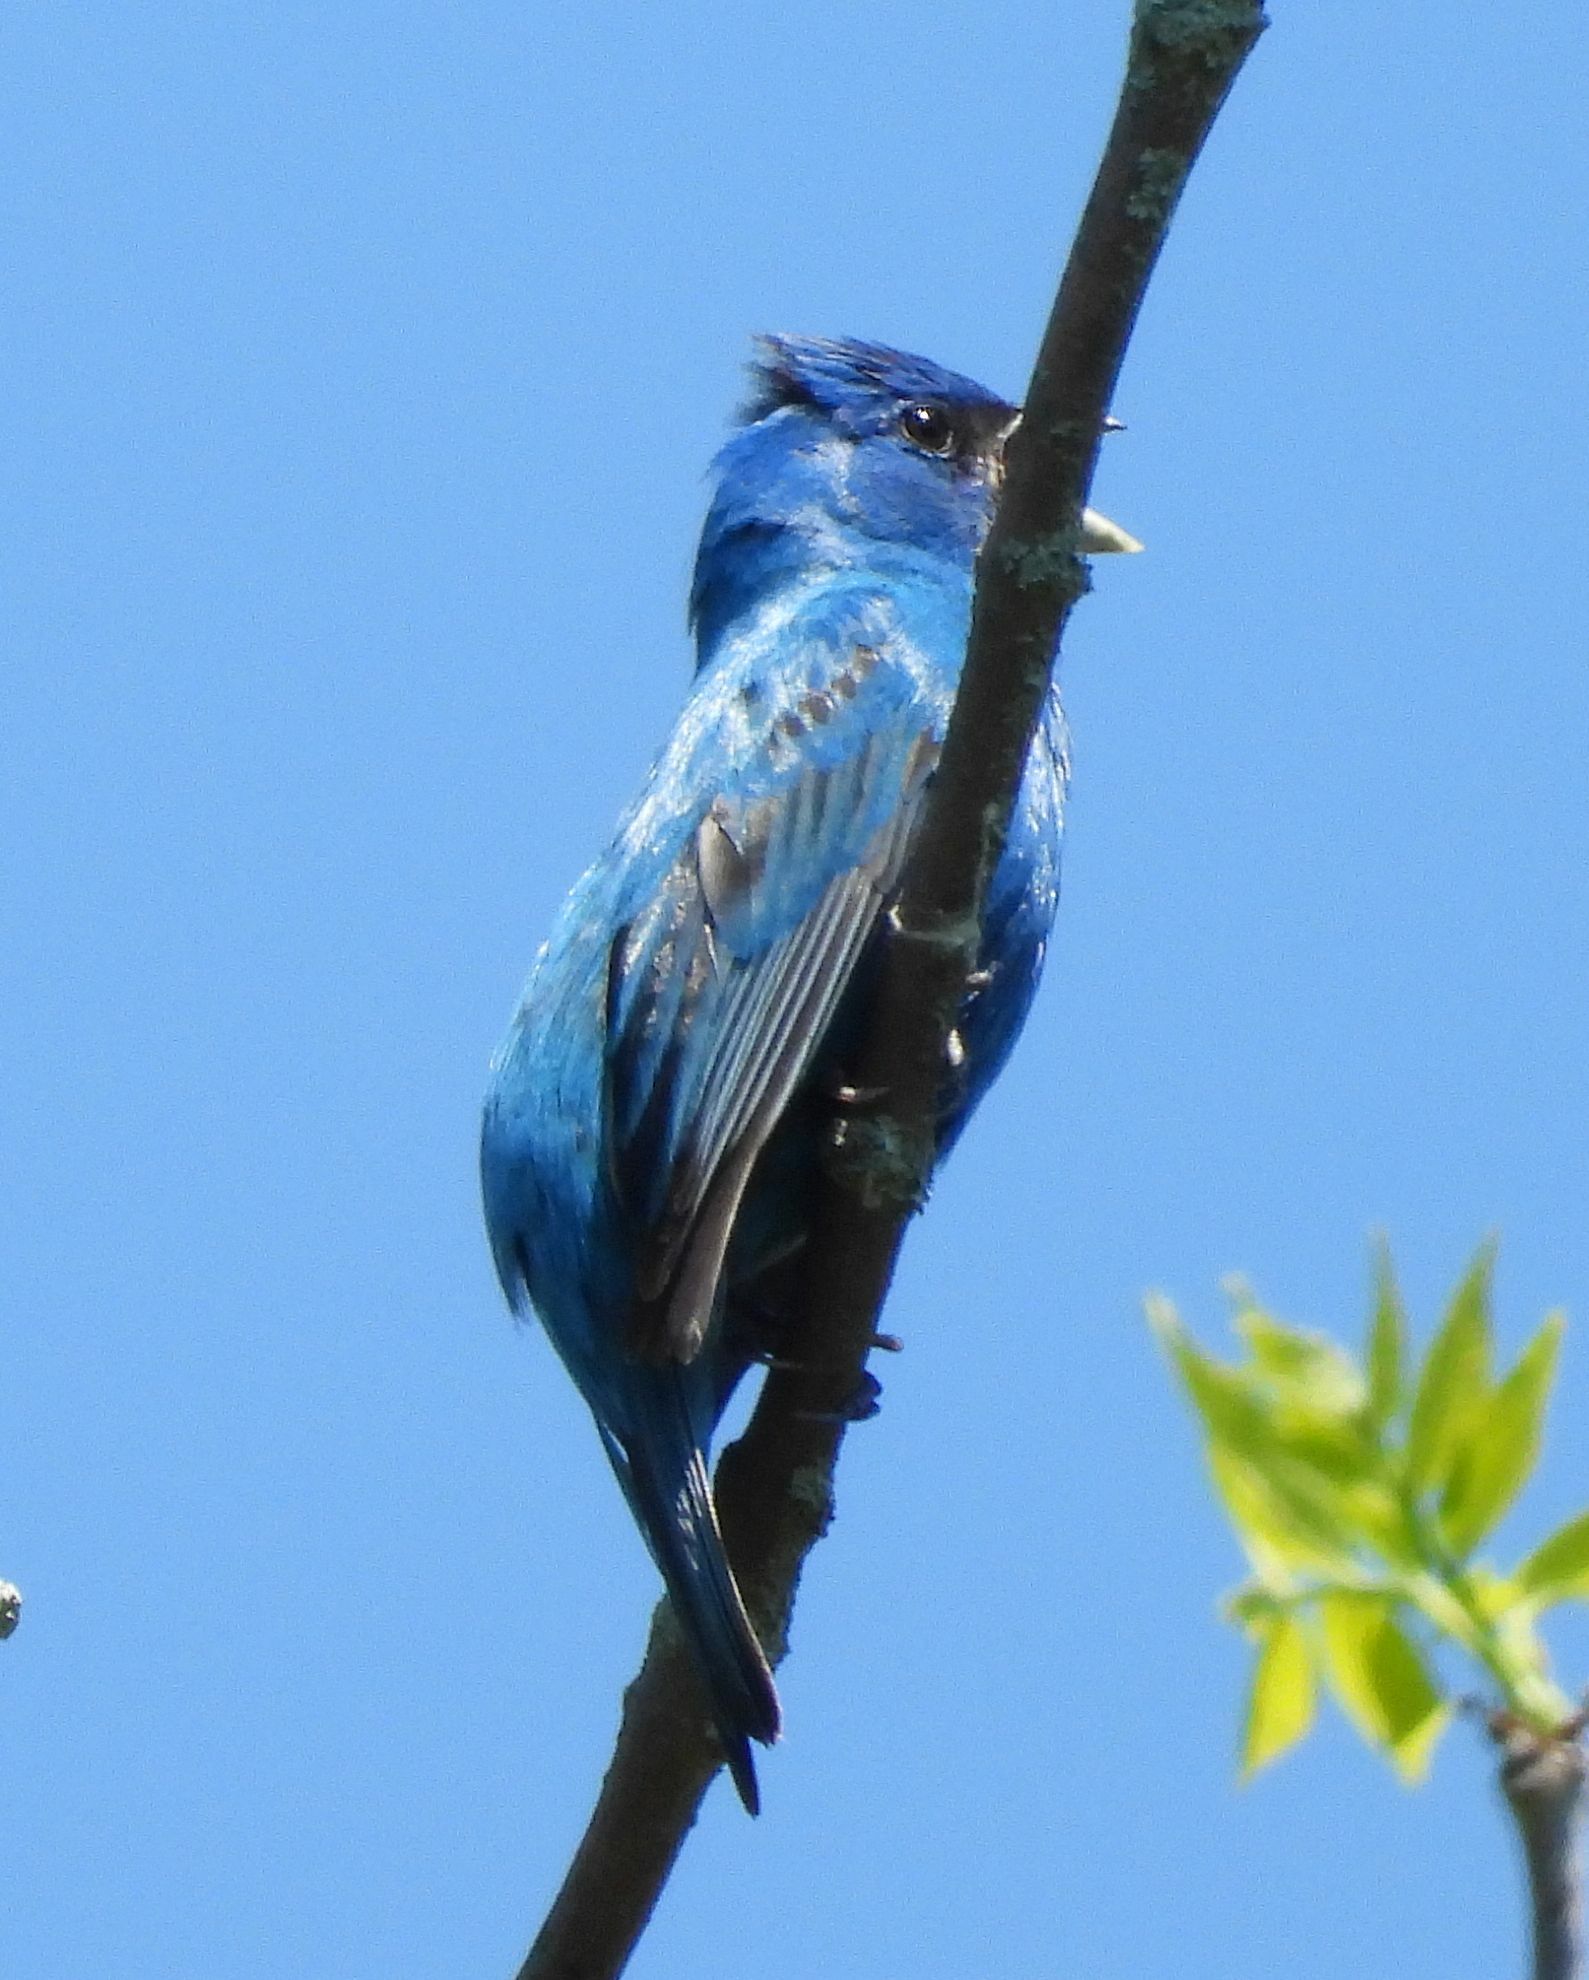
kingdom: Animalia
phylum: Chordata
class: Aves
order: Passeriformes
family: Cardinalidae
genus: Passerina
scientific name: Passerina cyanea
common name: Indigo bunting
